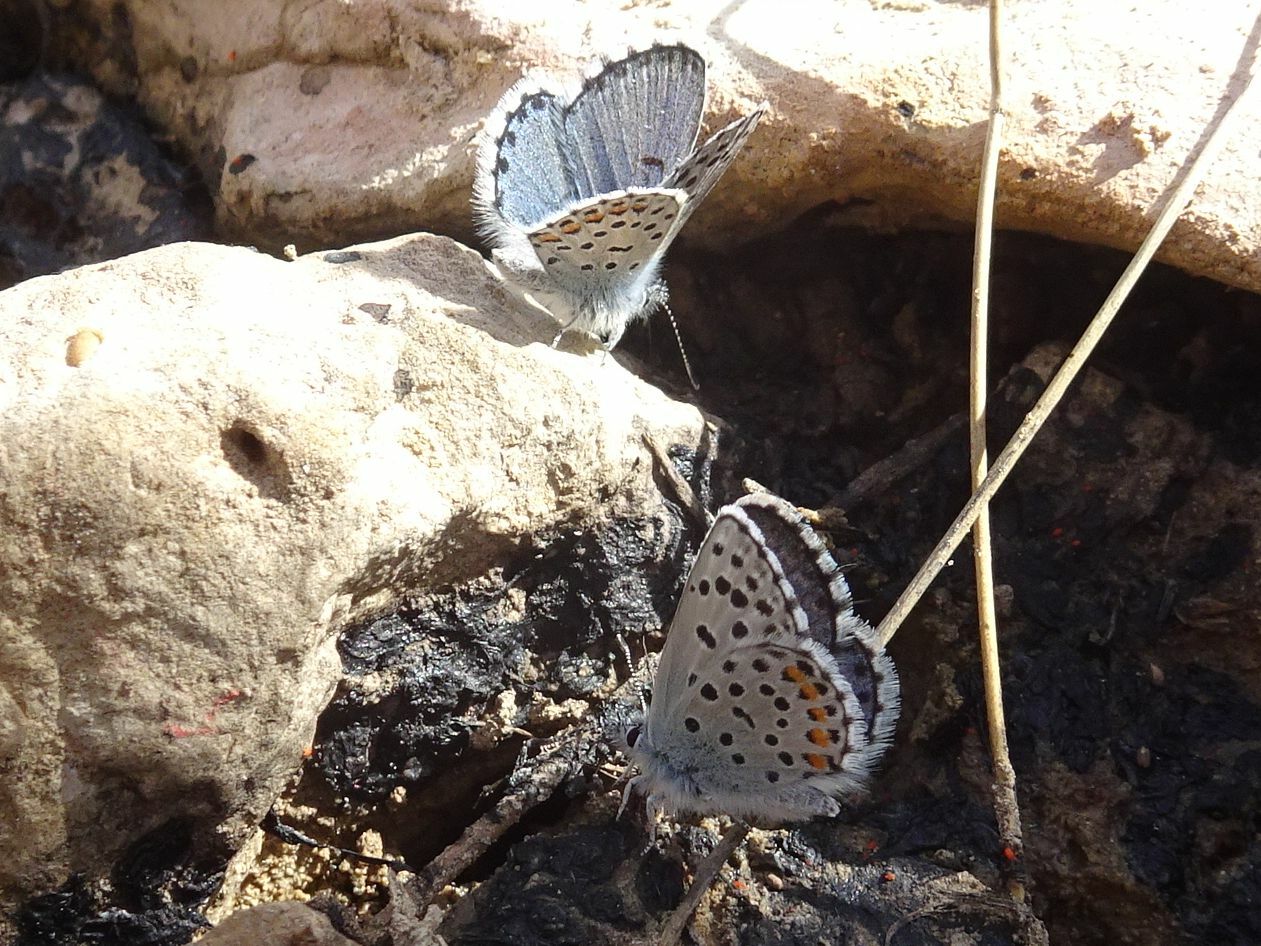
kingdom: Animalia
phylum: Arthropoda
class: Insecta
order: Lepidoptera
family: Lycaenidae
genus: Pseudophilotes
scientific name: Pseudophilotes baton
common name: Baton blue
